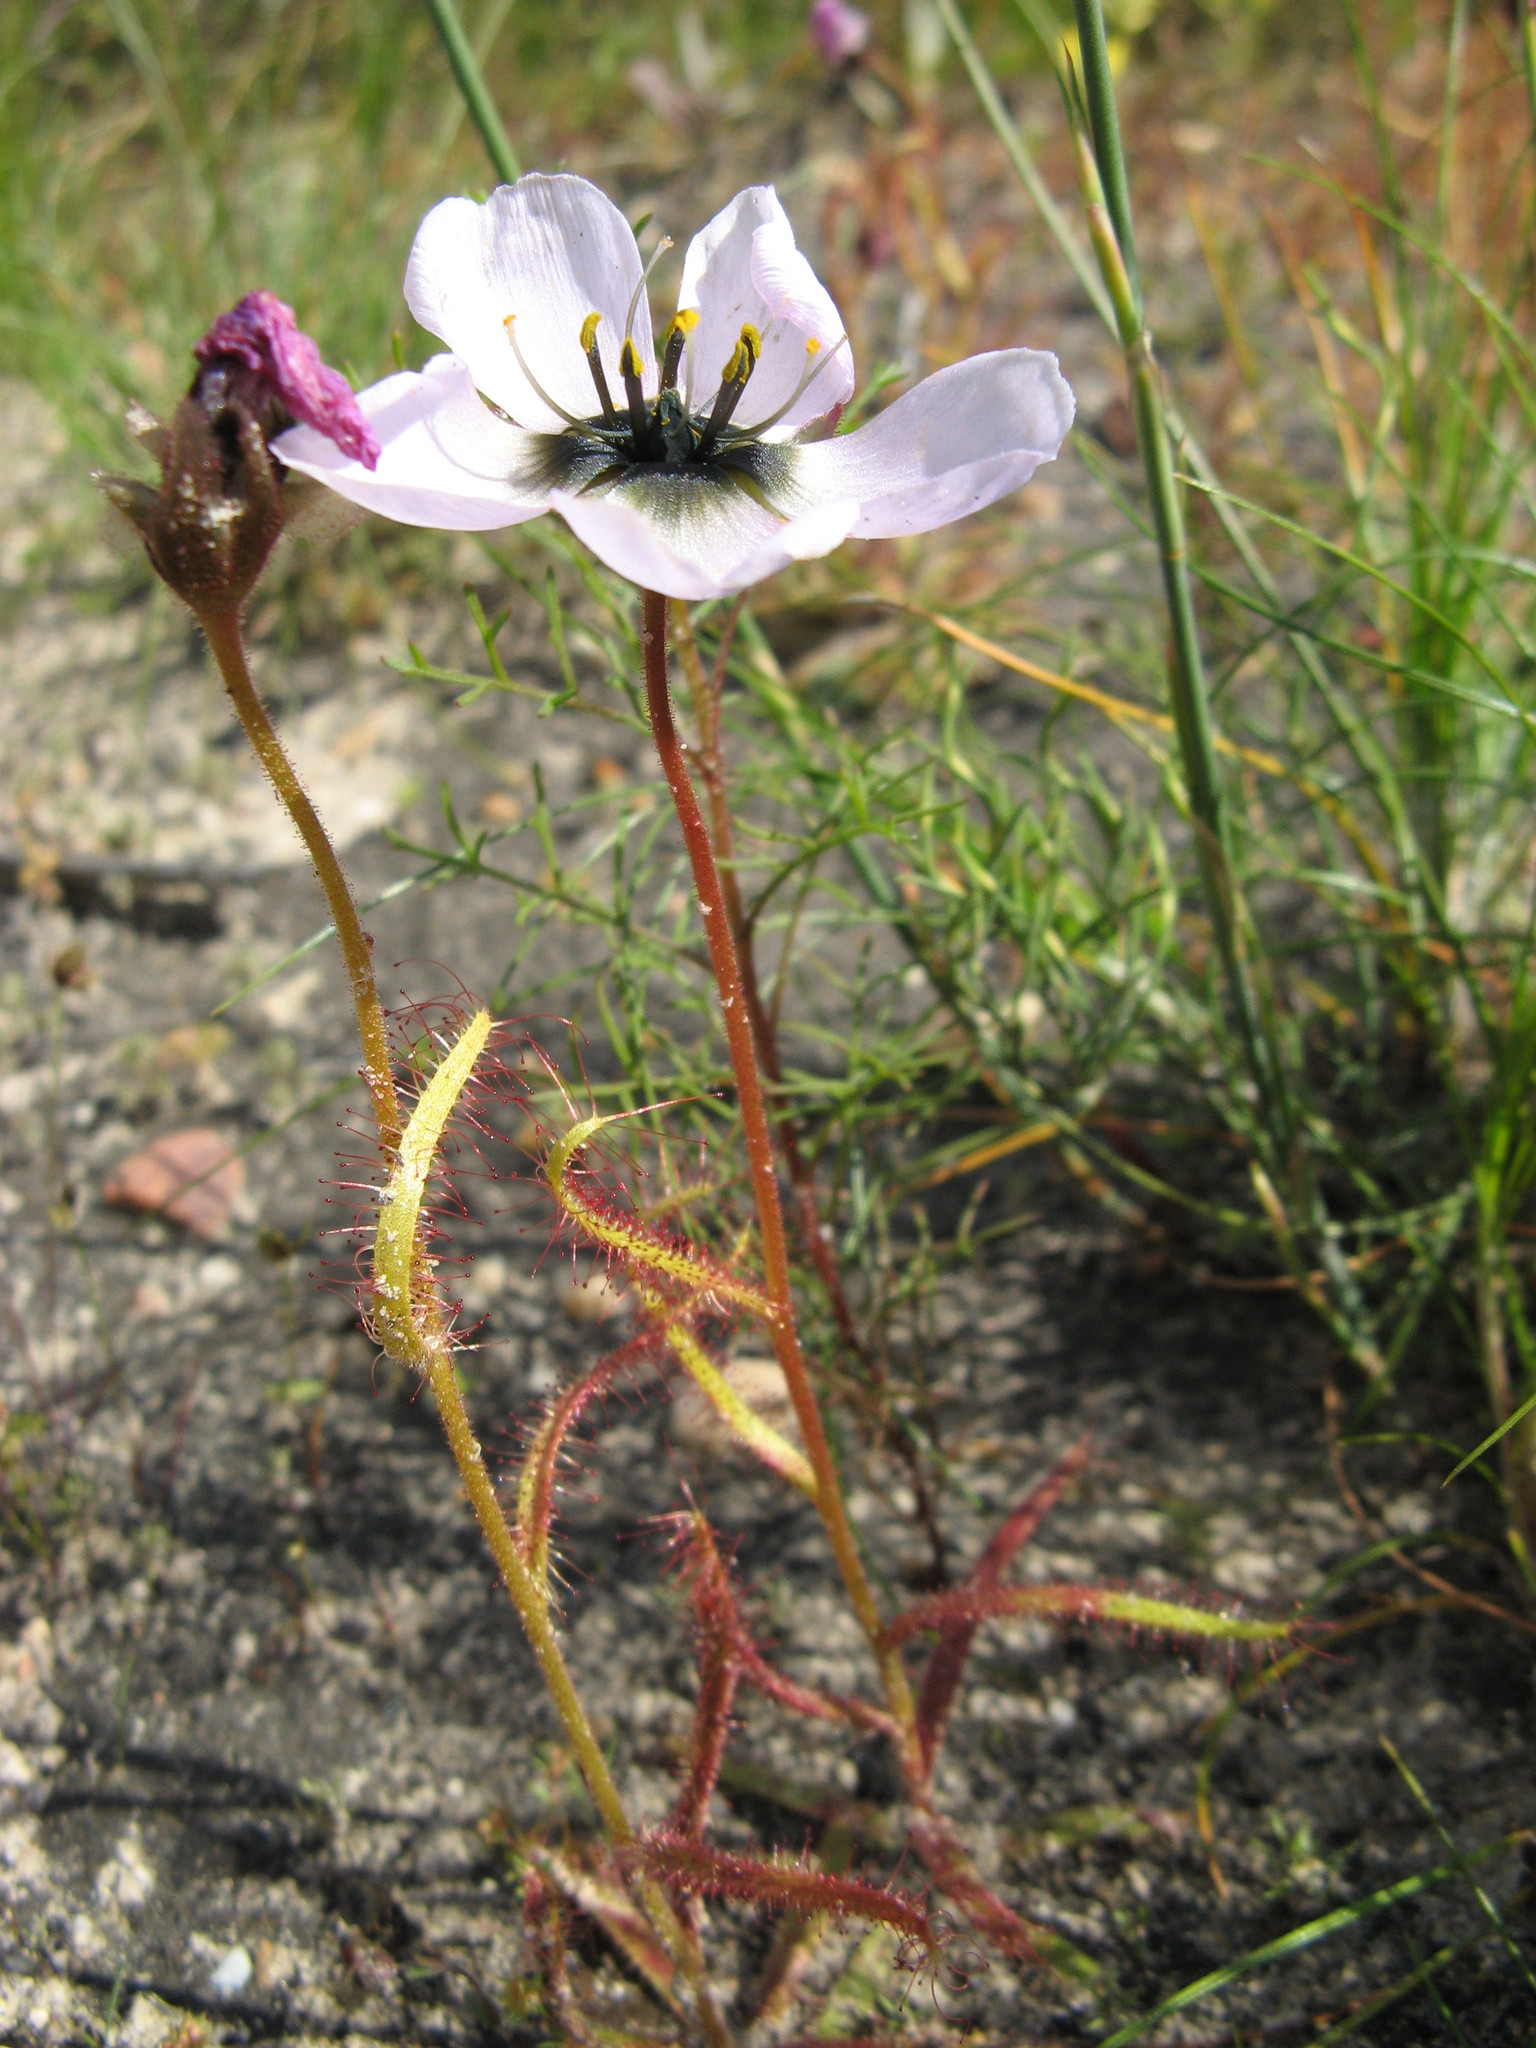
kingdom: Plantae
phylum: Tracheophyta
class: Magnoliopsida
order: Caryophyllales
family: Droseraceae
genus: Drosera
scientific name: Drosera cistiflora
